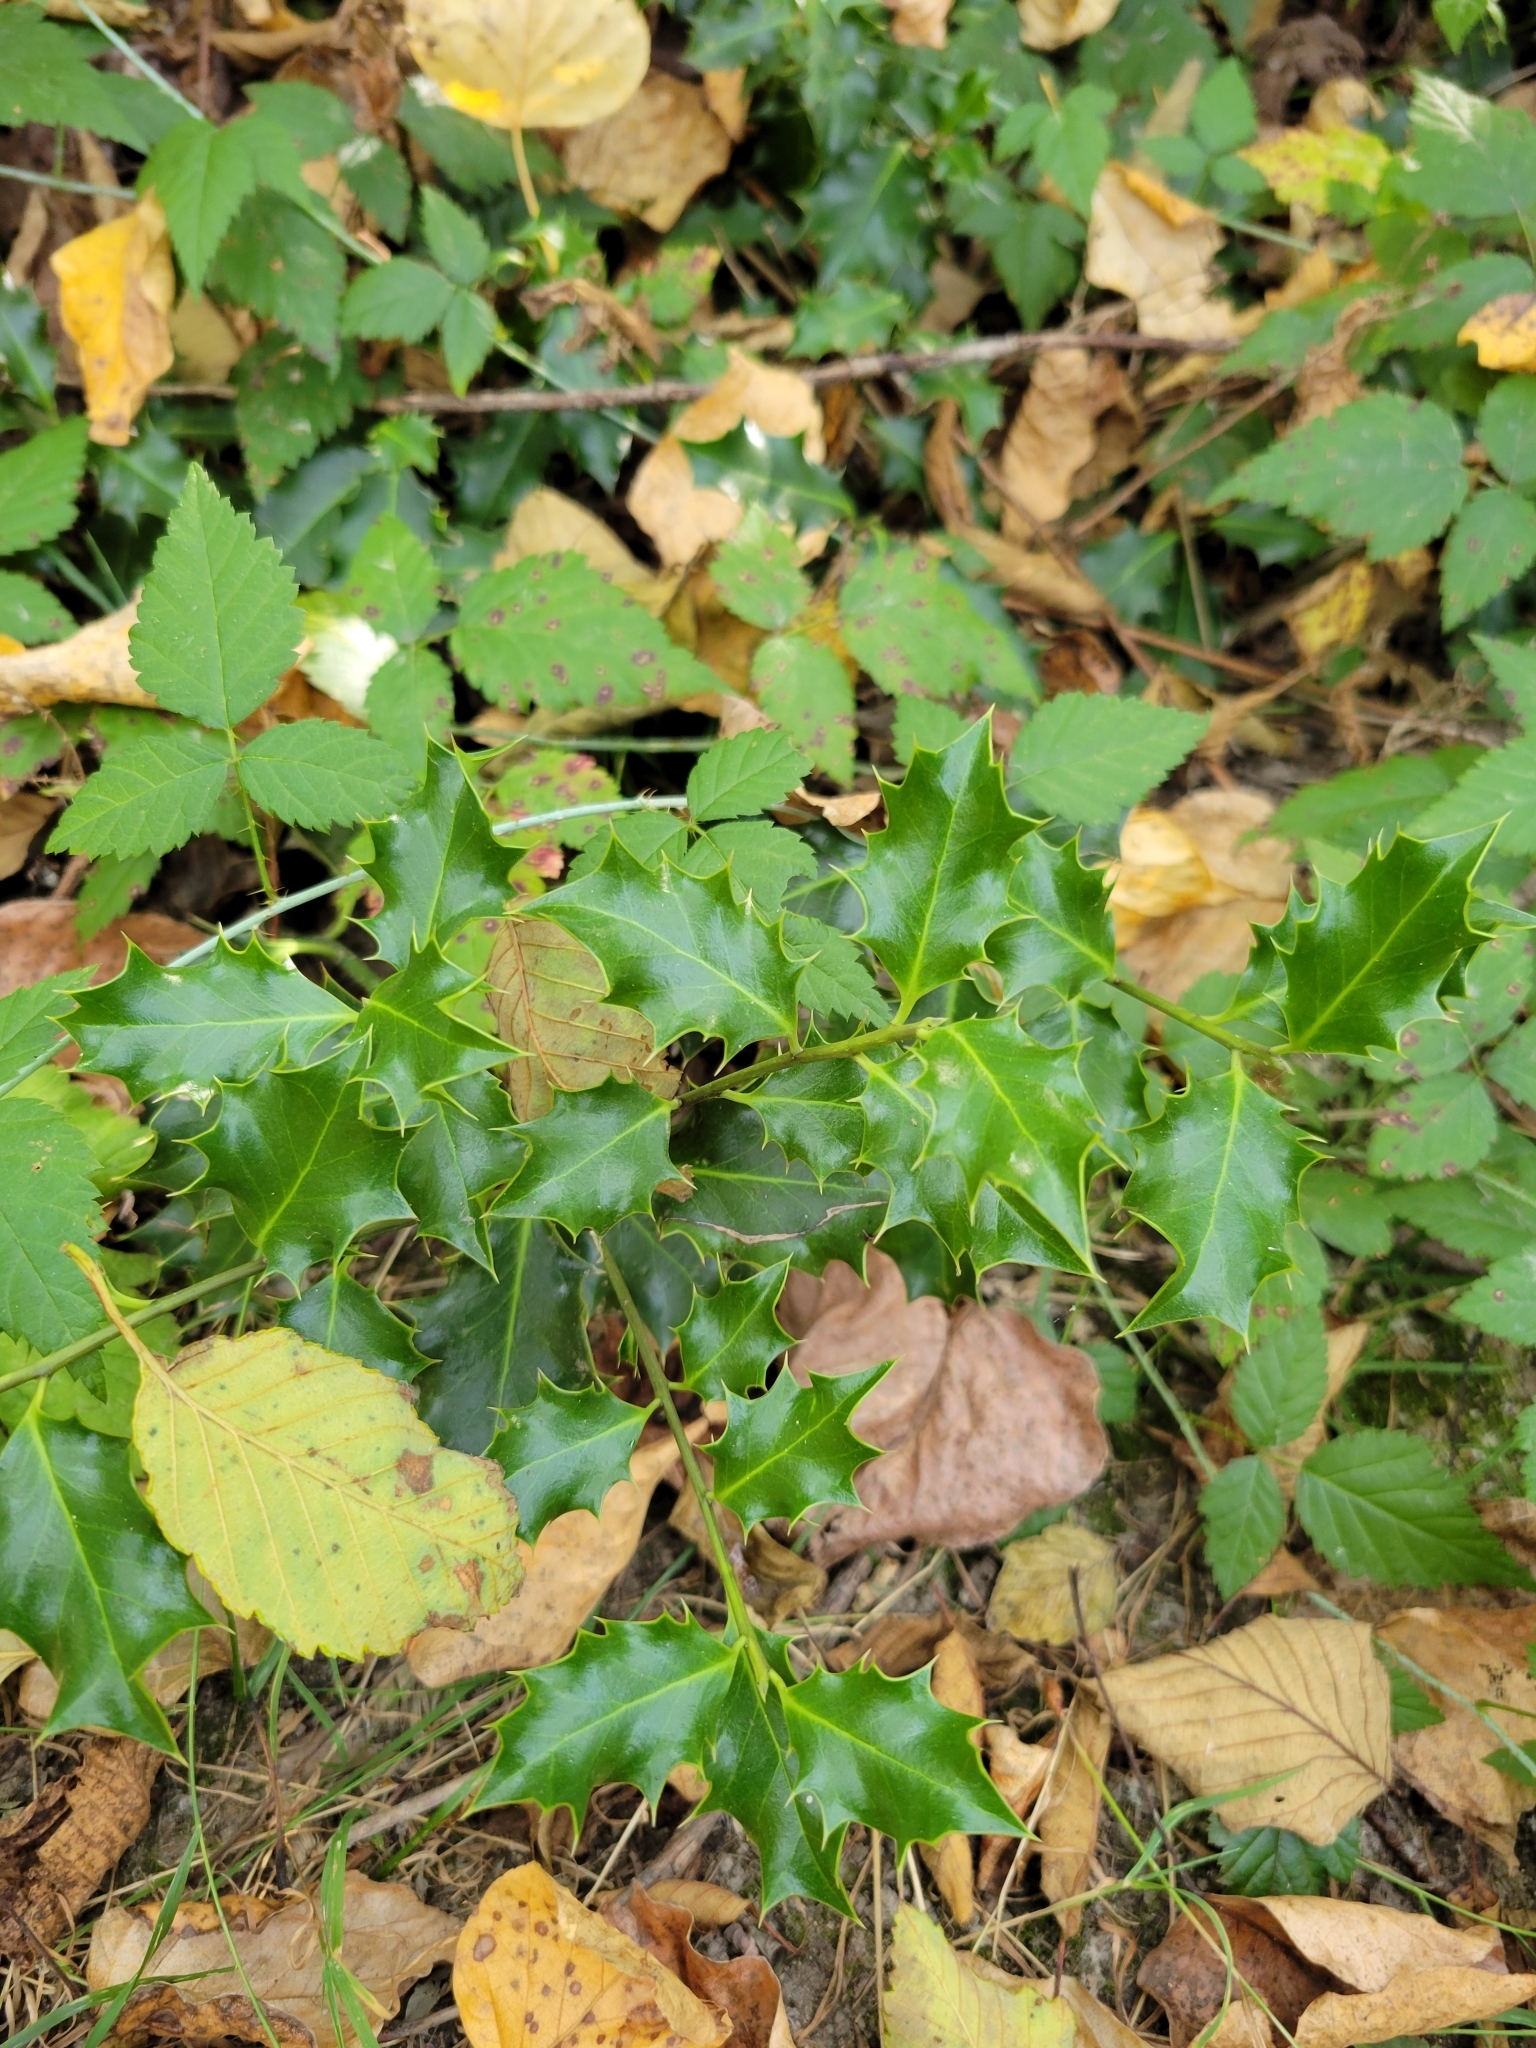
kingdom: Plantae
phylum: Tracheophyta
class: Magnoliopsida
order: Aquifoliales
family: Aquifoliaceae
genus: Ilex
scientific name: Ilex aquifolium
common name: English holly
